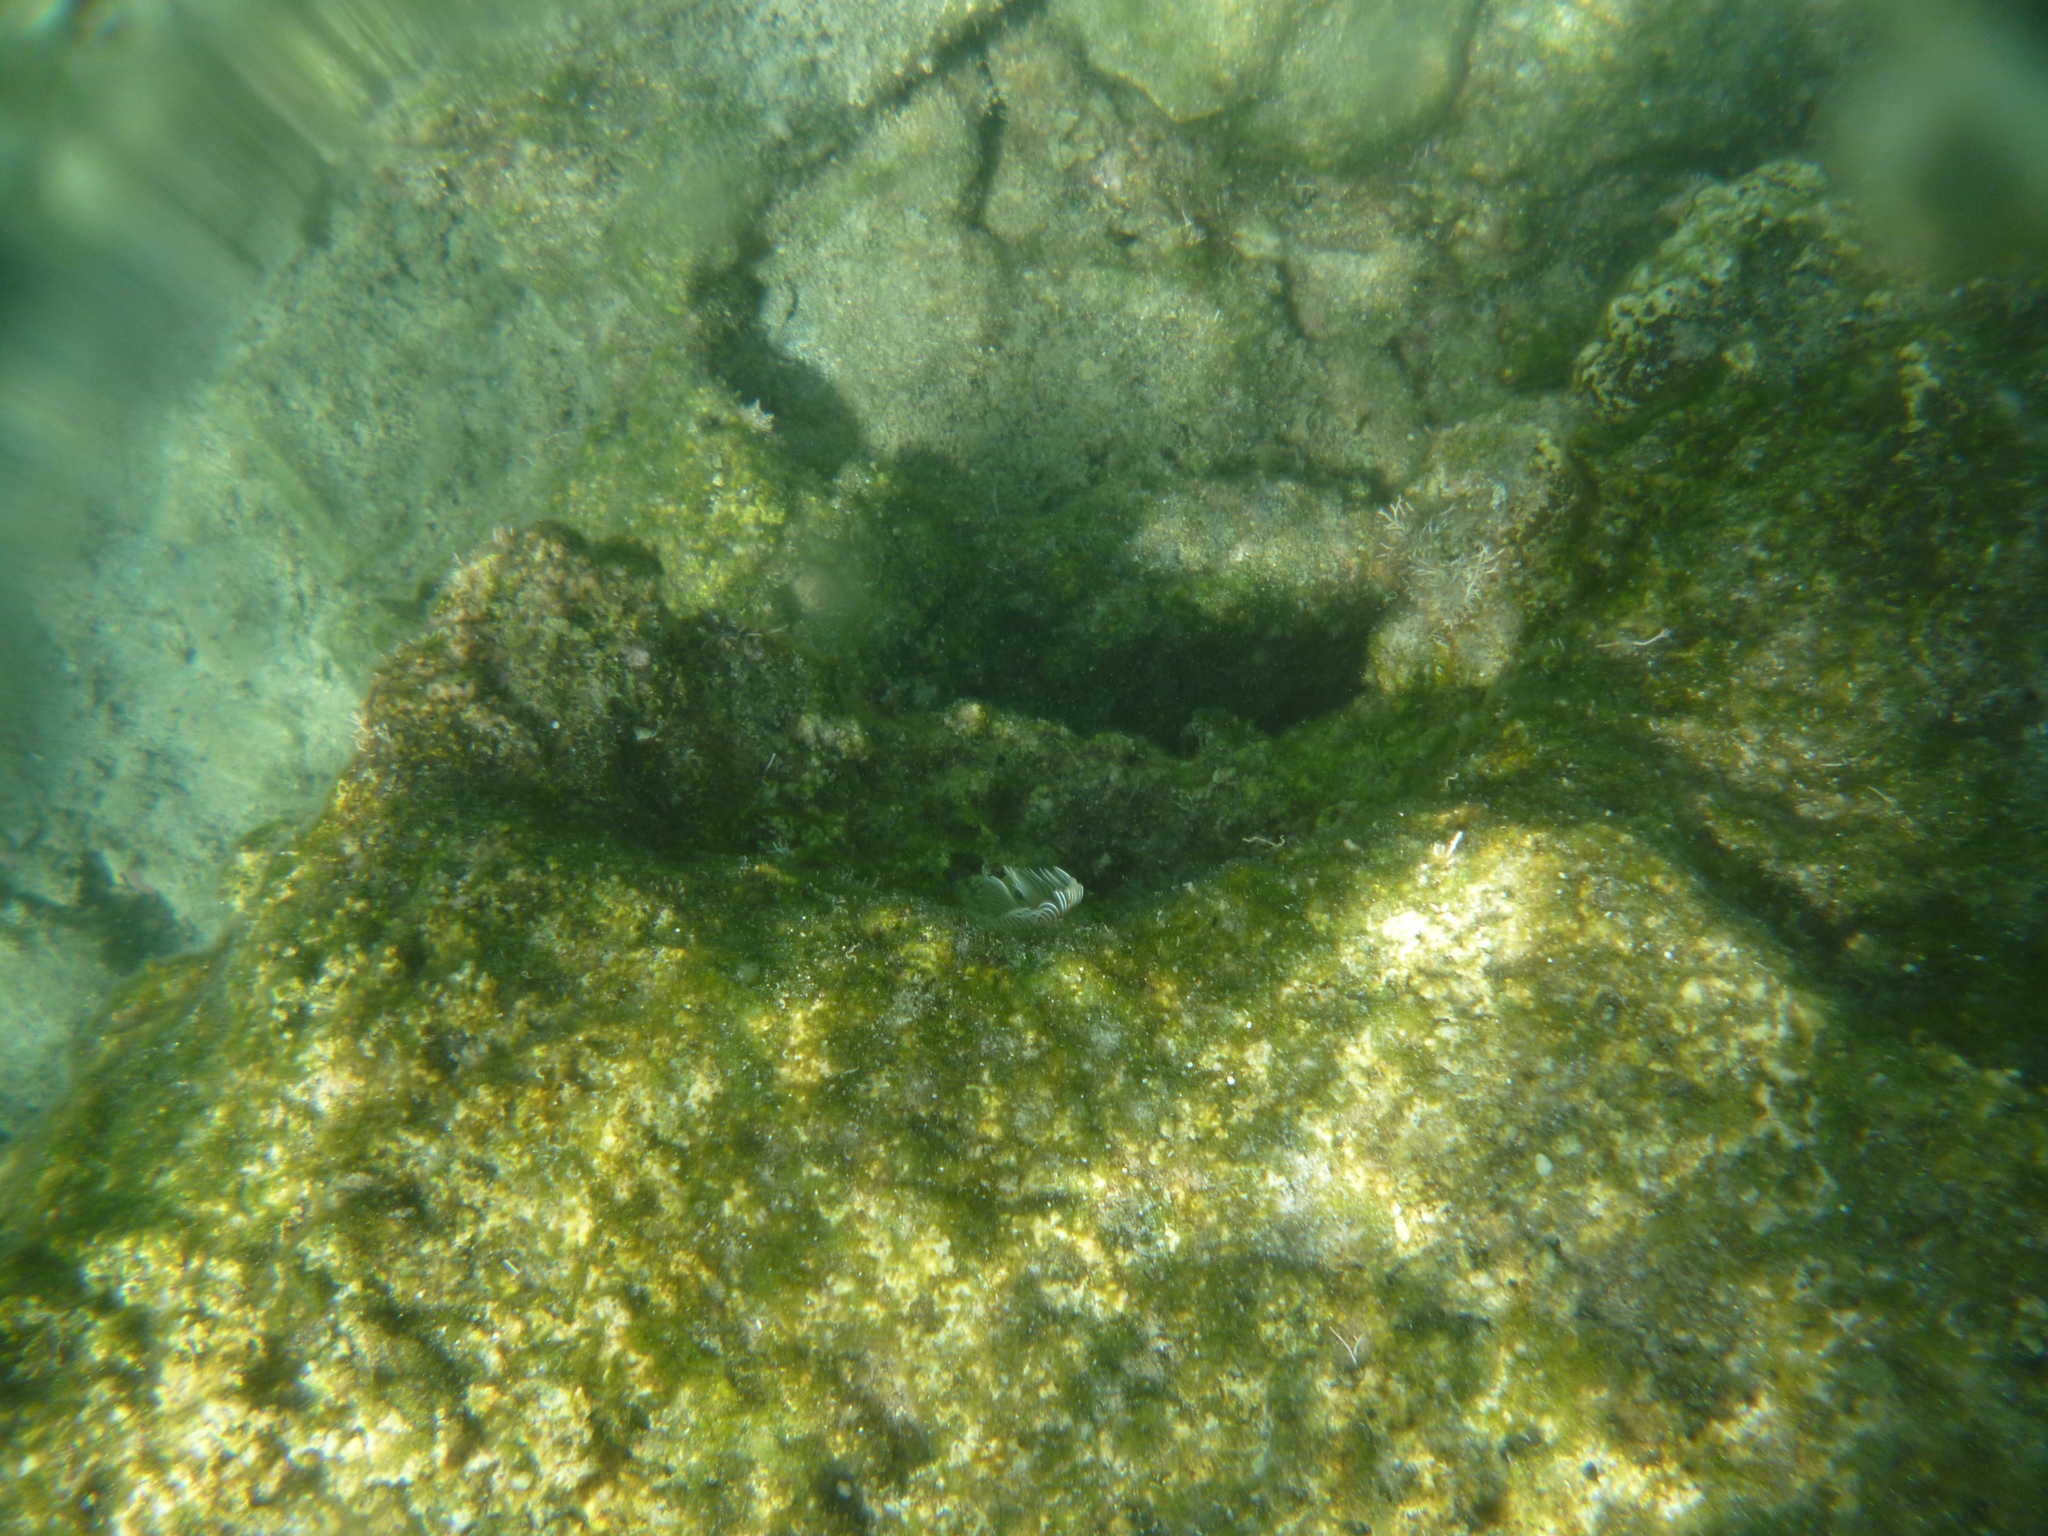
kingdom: Animalia
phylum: Annelida
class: Polychaeta
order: Sabellida
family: Serpulidae
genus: Protula
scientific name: Protula tubularia
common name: Red-spotted horseshoe
